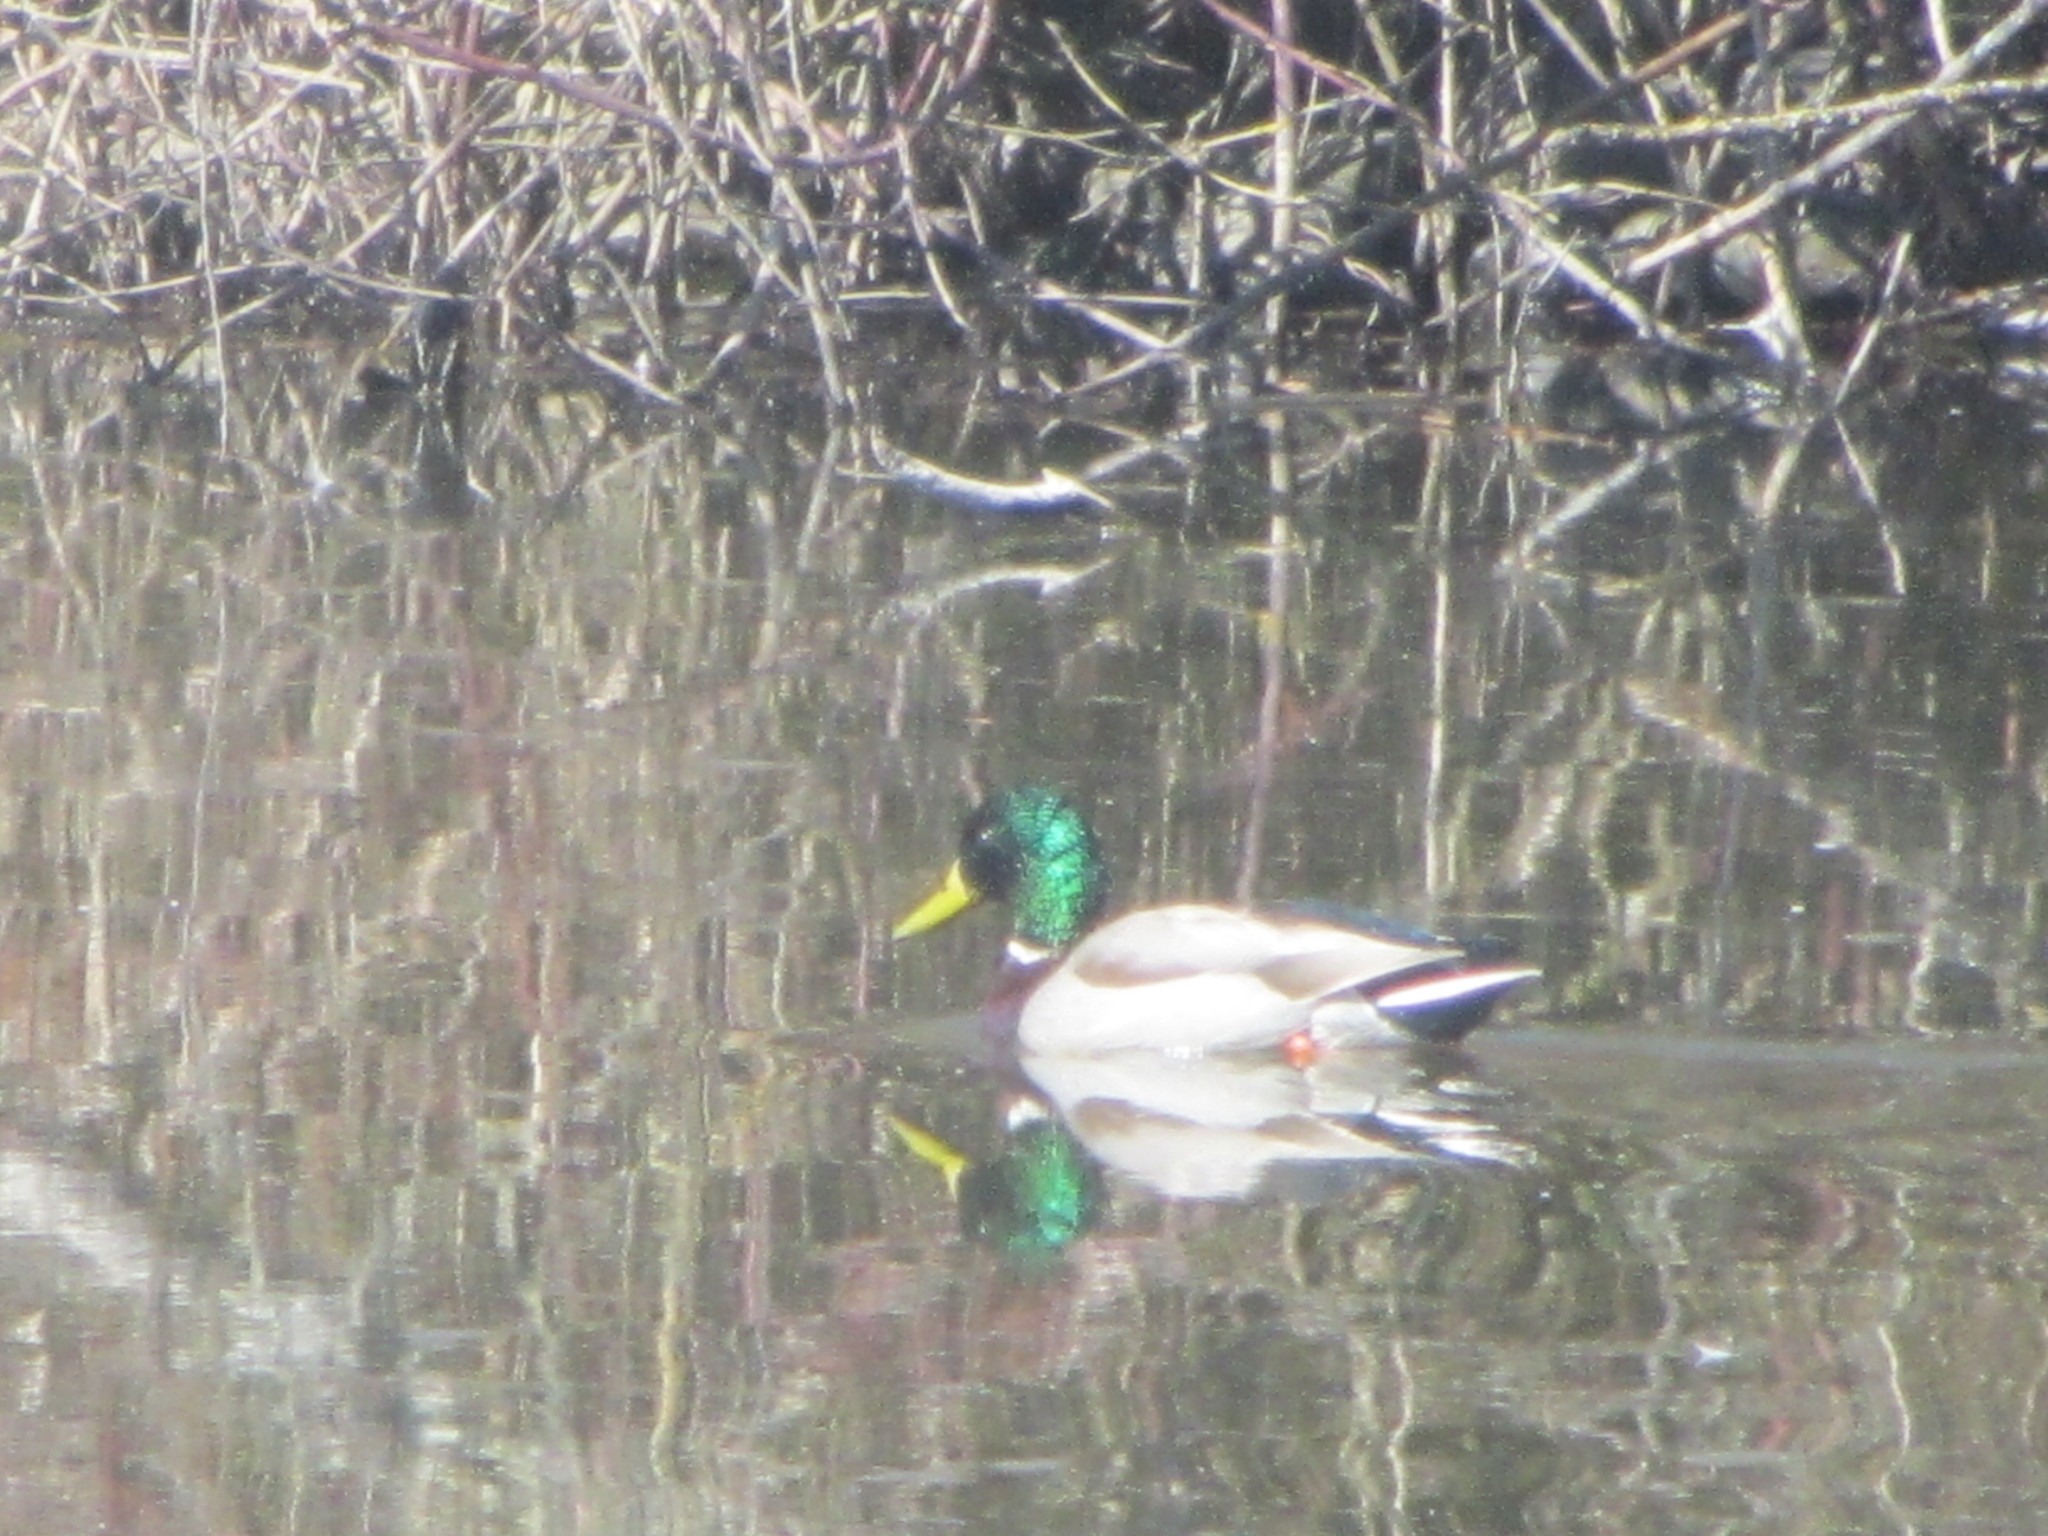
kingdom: Animalia
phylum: Chordata
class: Aves
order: Anseriformes
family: Anatidae
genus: Anas
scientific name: Anas platyrhynchos
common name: Mallard
